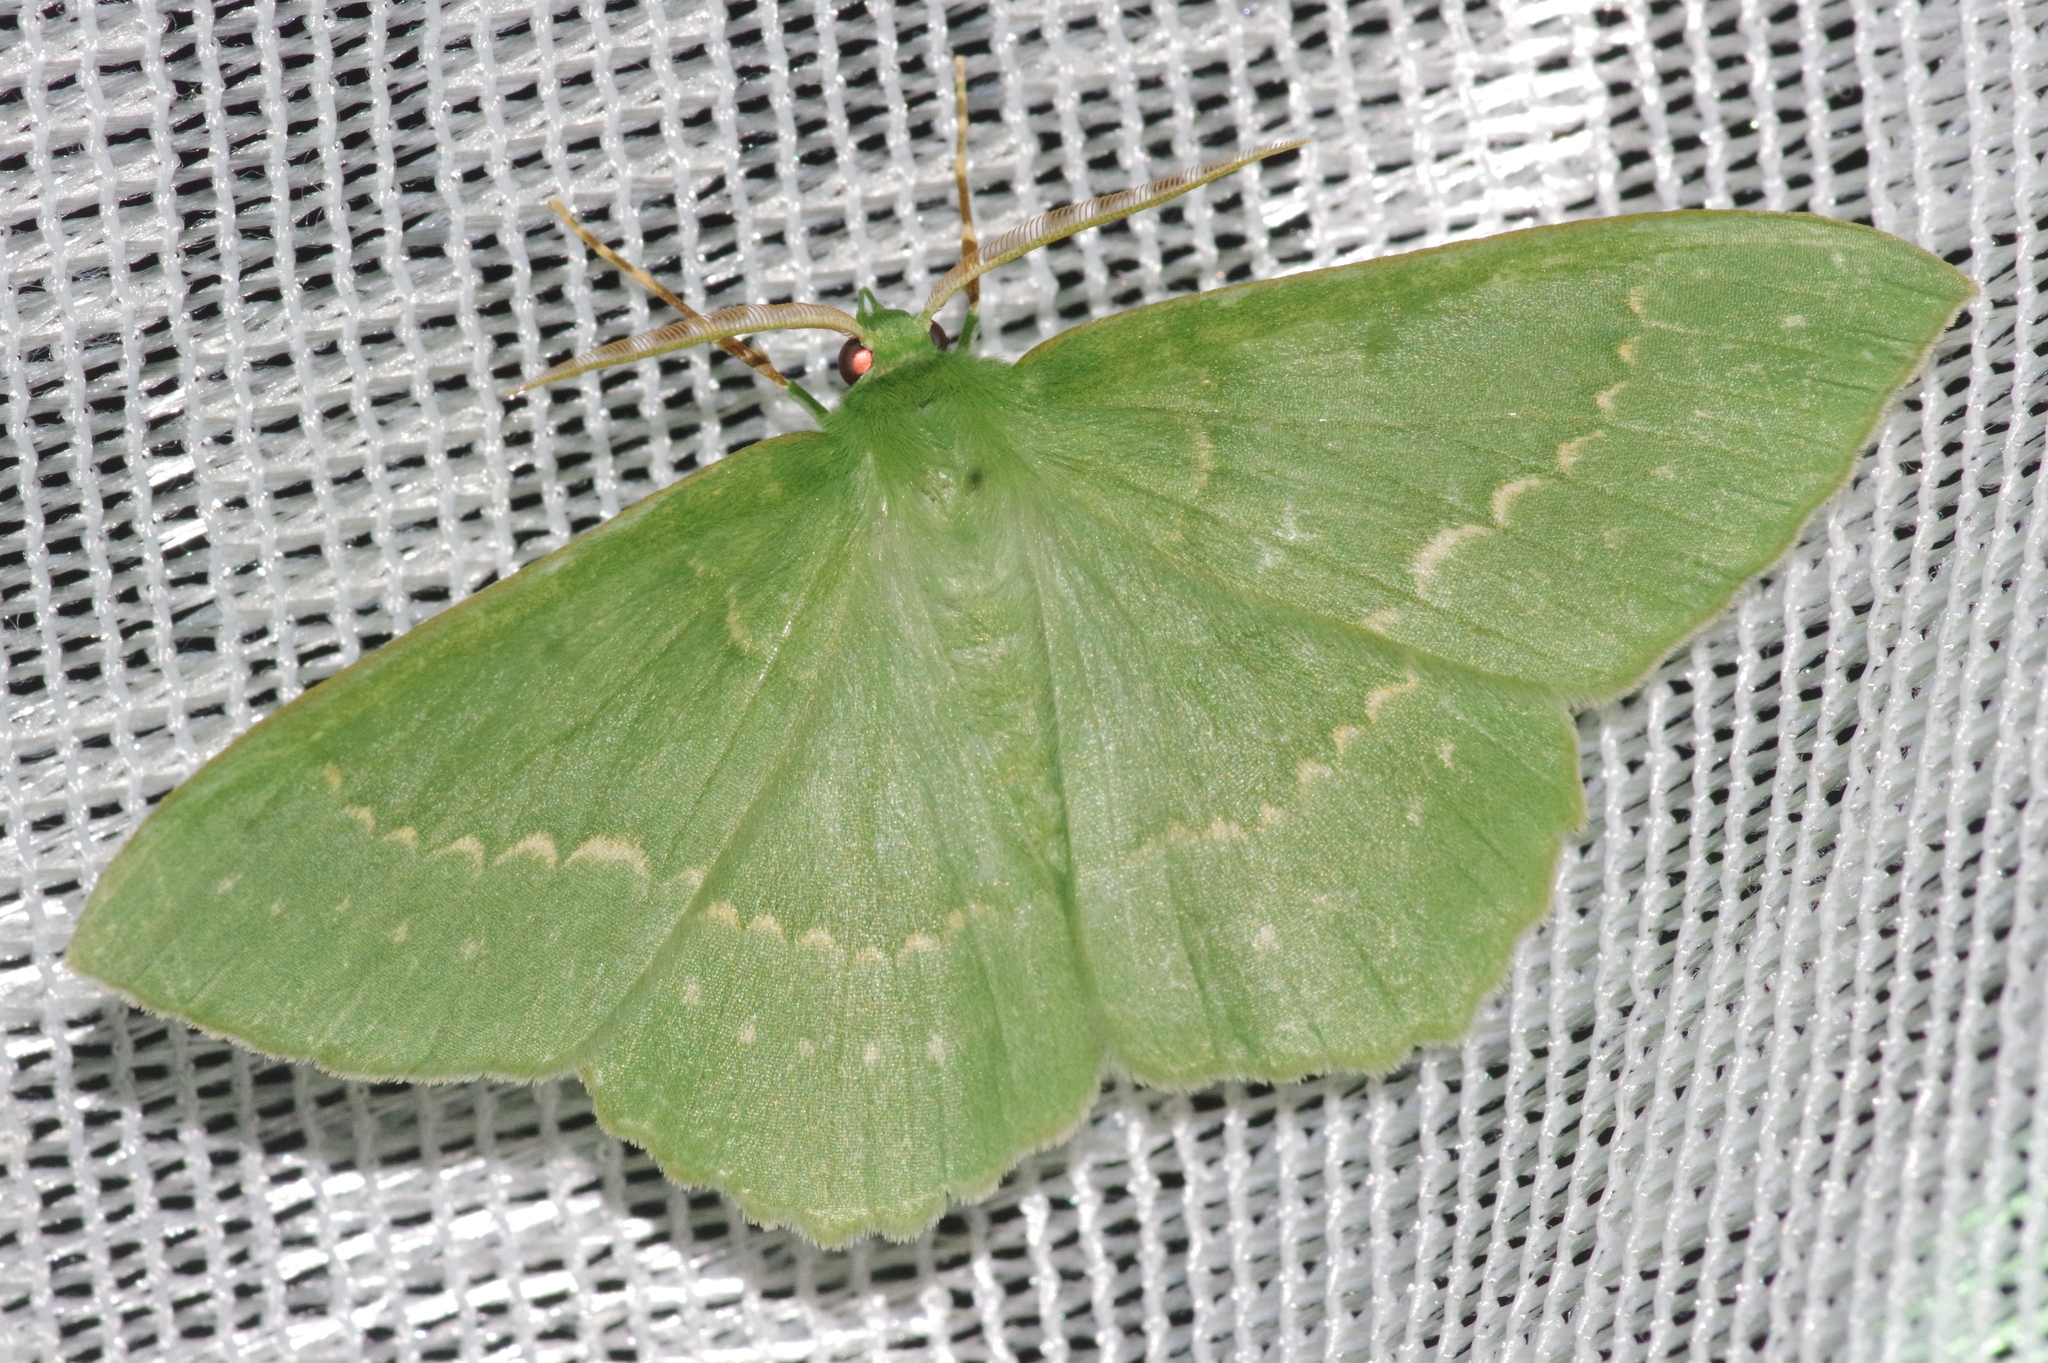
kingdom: Animalia
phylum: Arthropoda
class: Insecta
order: Lepidoptera
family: Geometridae
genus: Geometra
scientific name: Geometra papilionaria
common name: Large emerald
